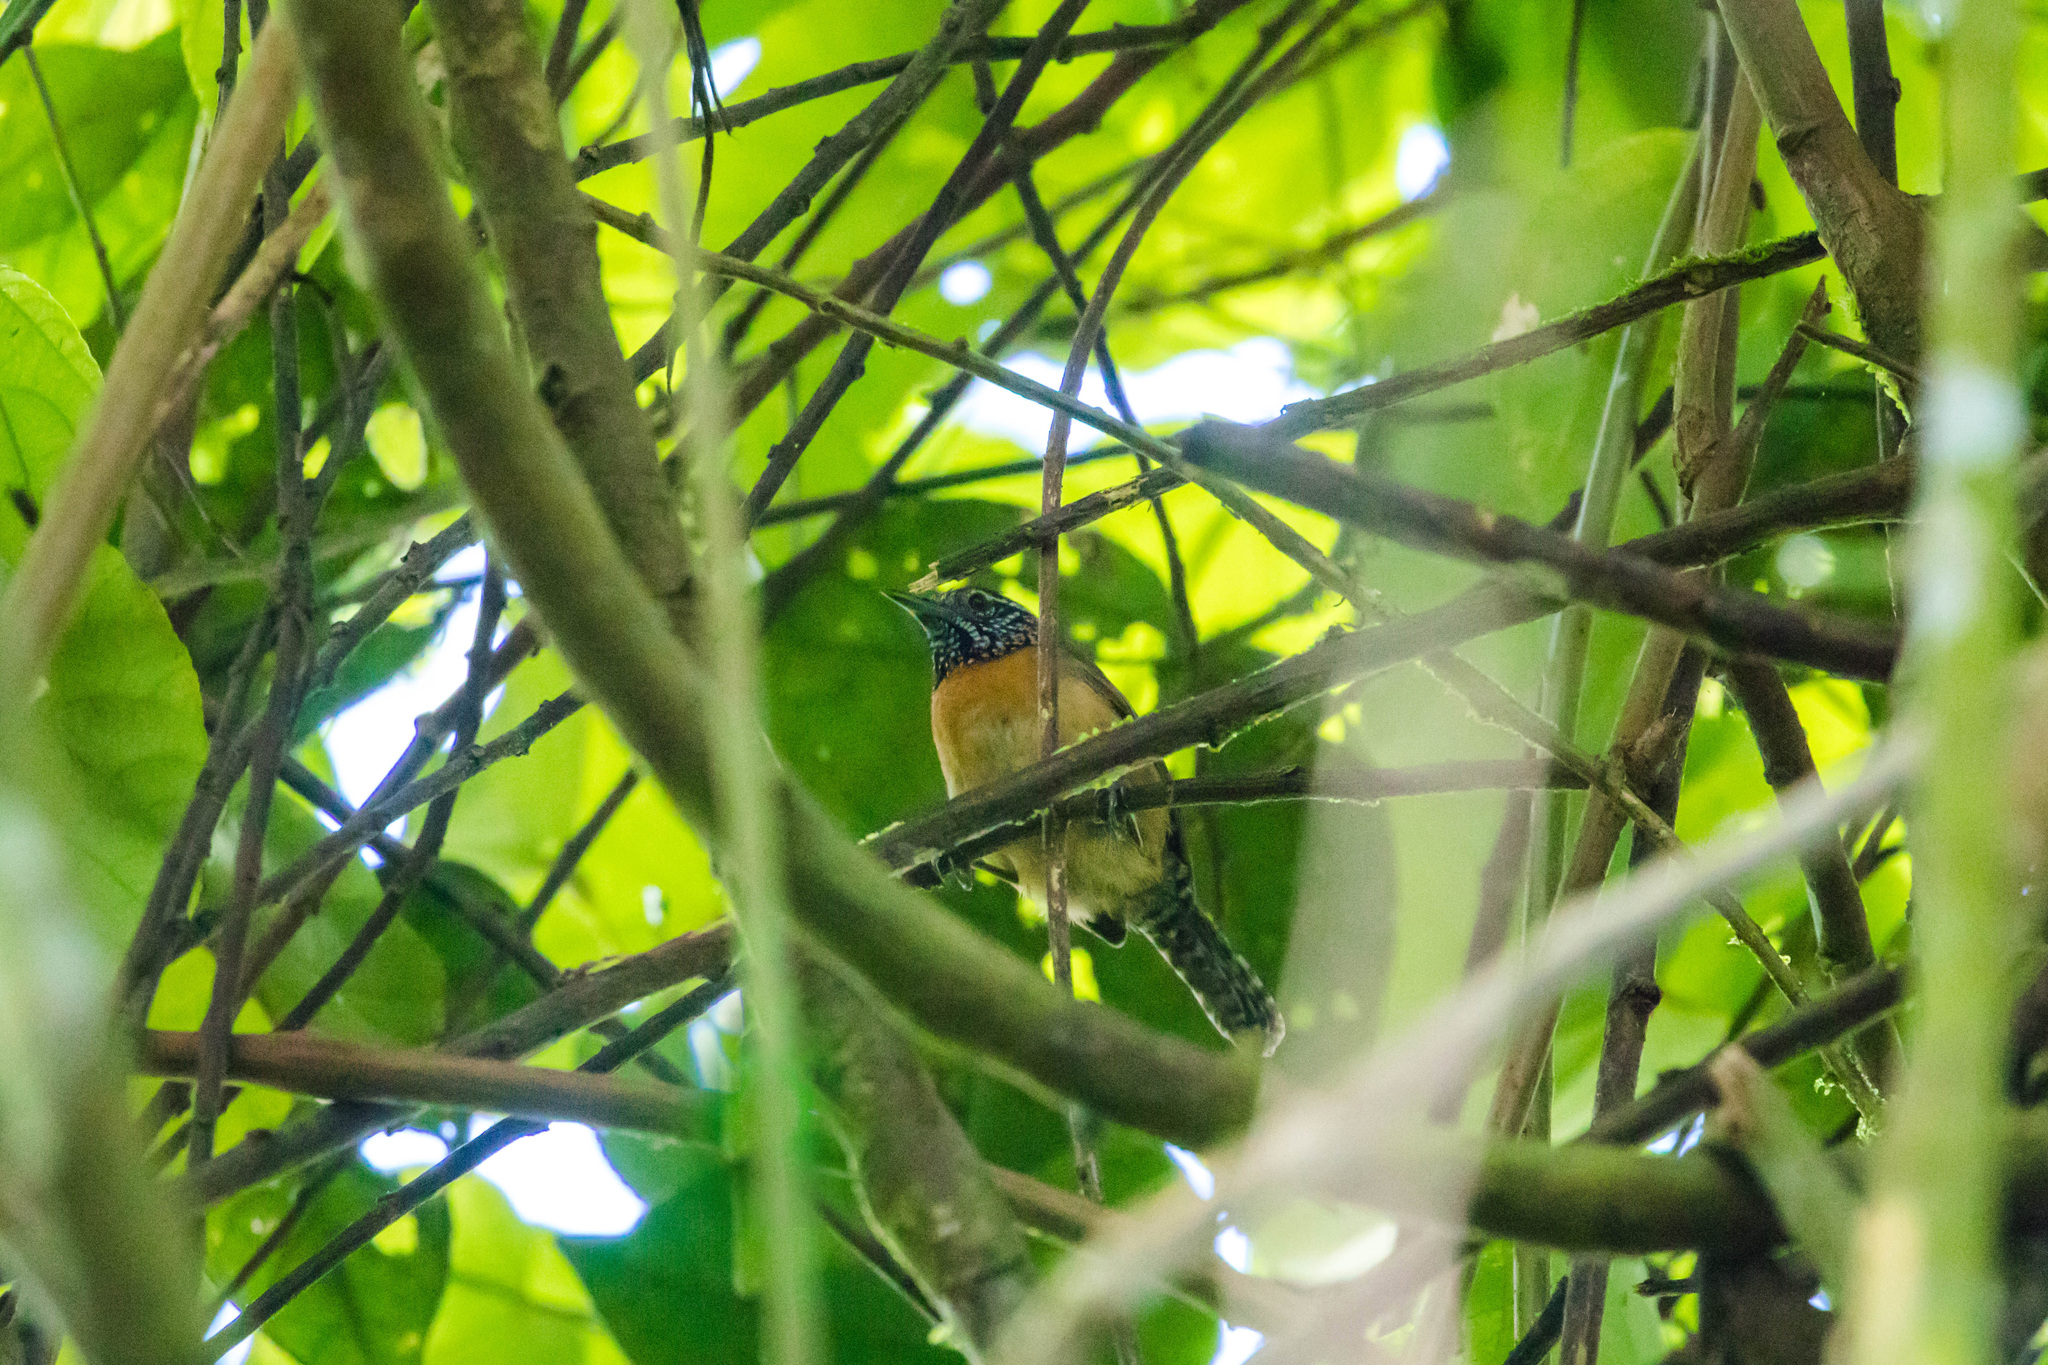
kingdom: Animalia
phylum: Chordata
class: Aves
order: Passeriformes
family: Troglodytidae
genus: Pheugopedius
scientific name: Pheugopedius rutilus
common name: Rufous-breasted wren
